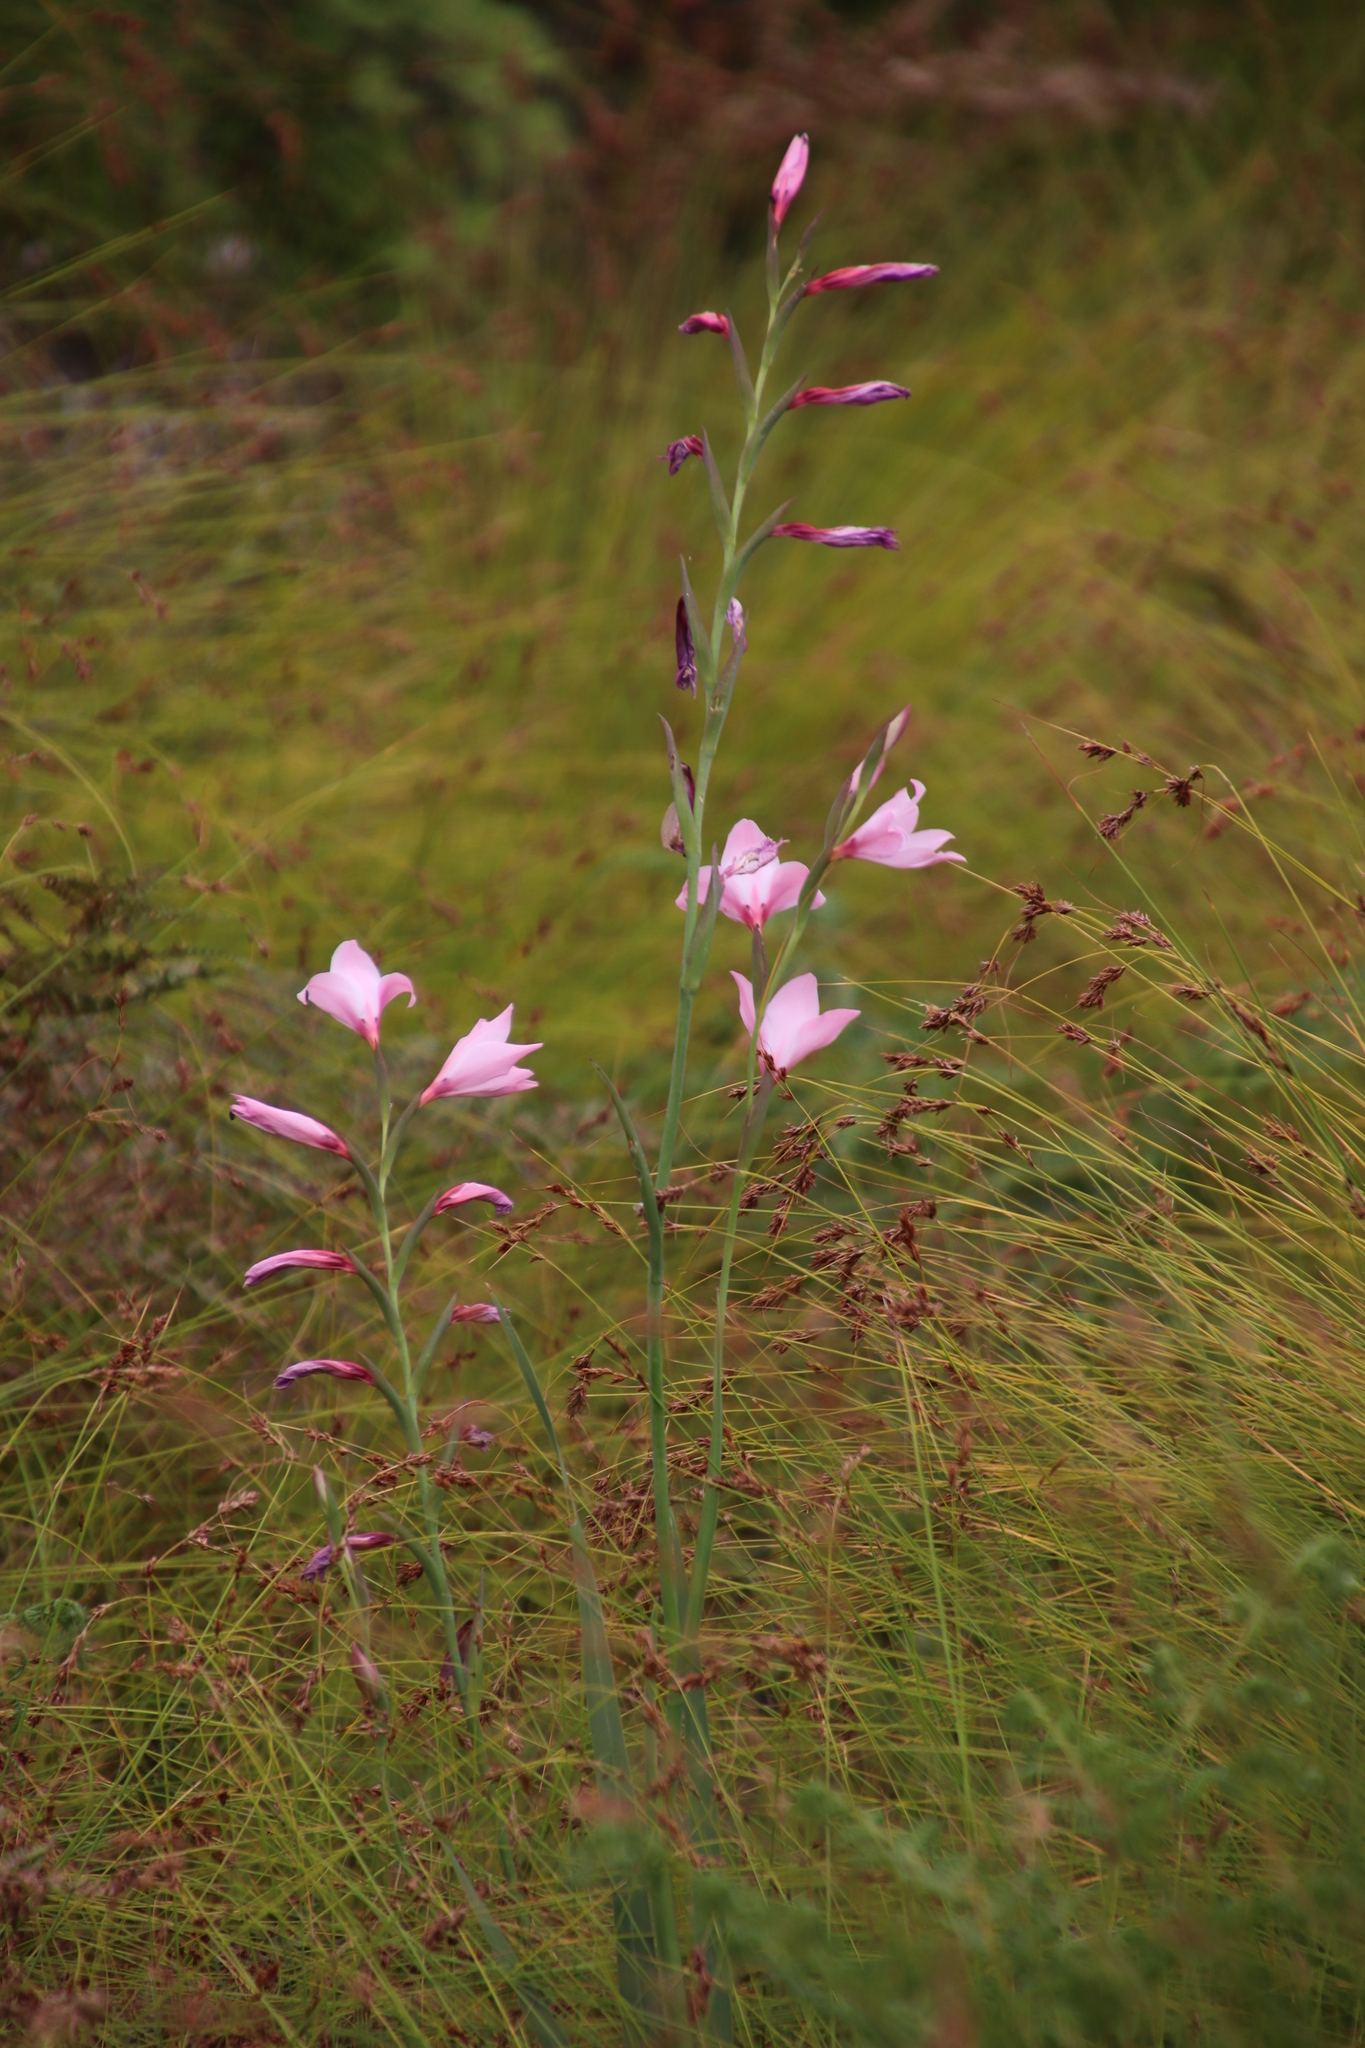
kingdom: Plantae
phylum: Tracheophyta
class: Liliopsida
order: Asparagales
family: Iridaceae
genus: Gladiolus
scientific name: Gladiolus carneus
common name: Painted-lady
